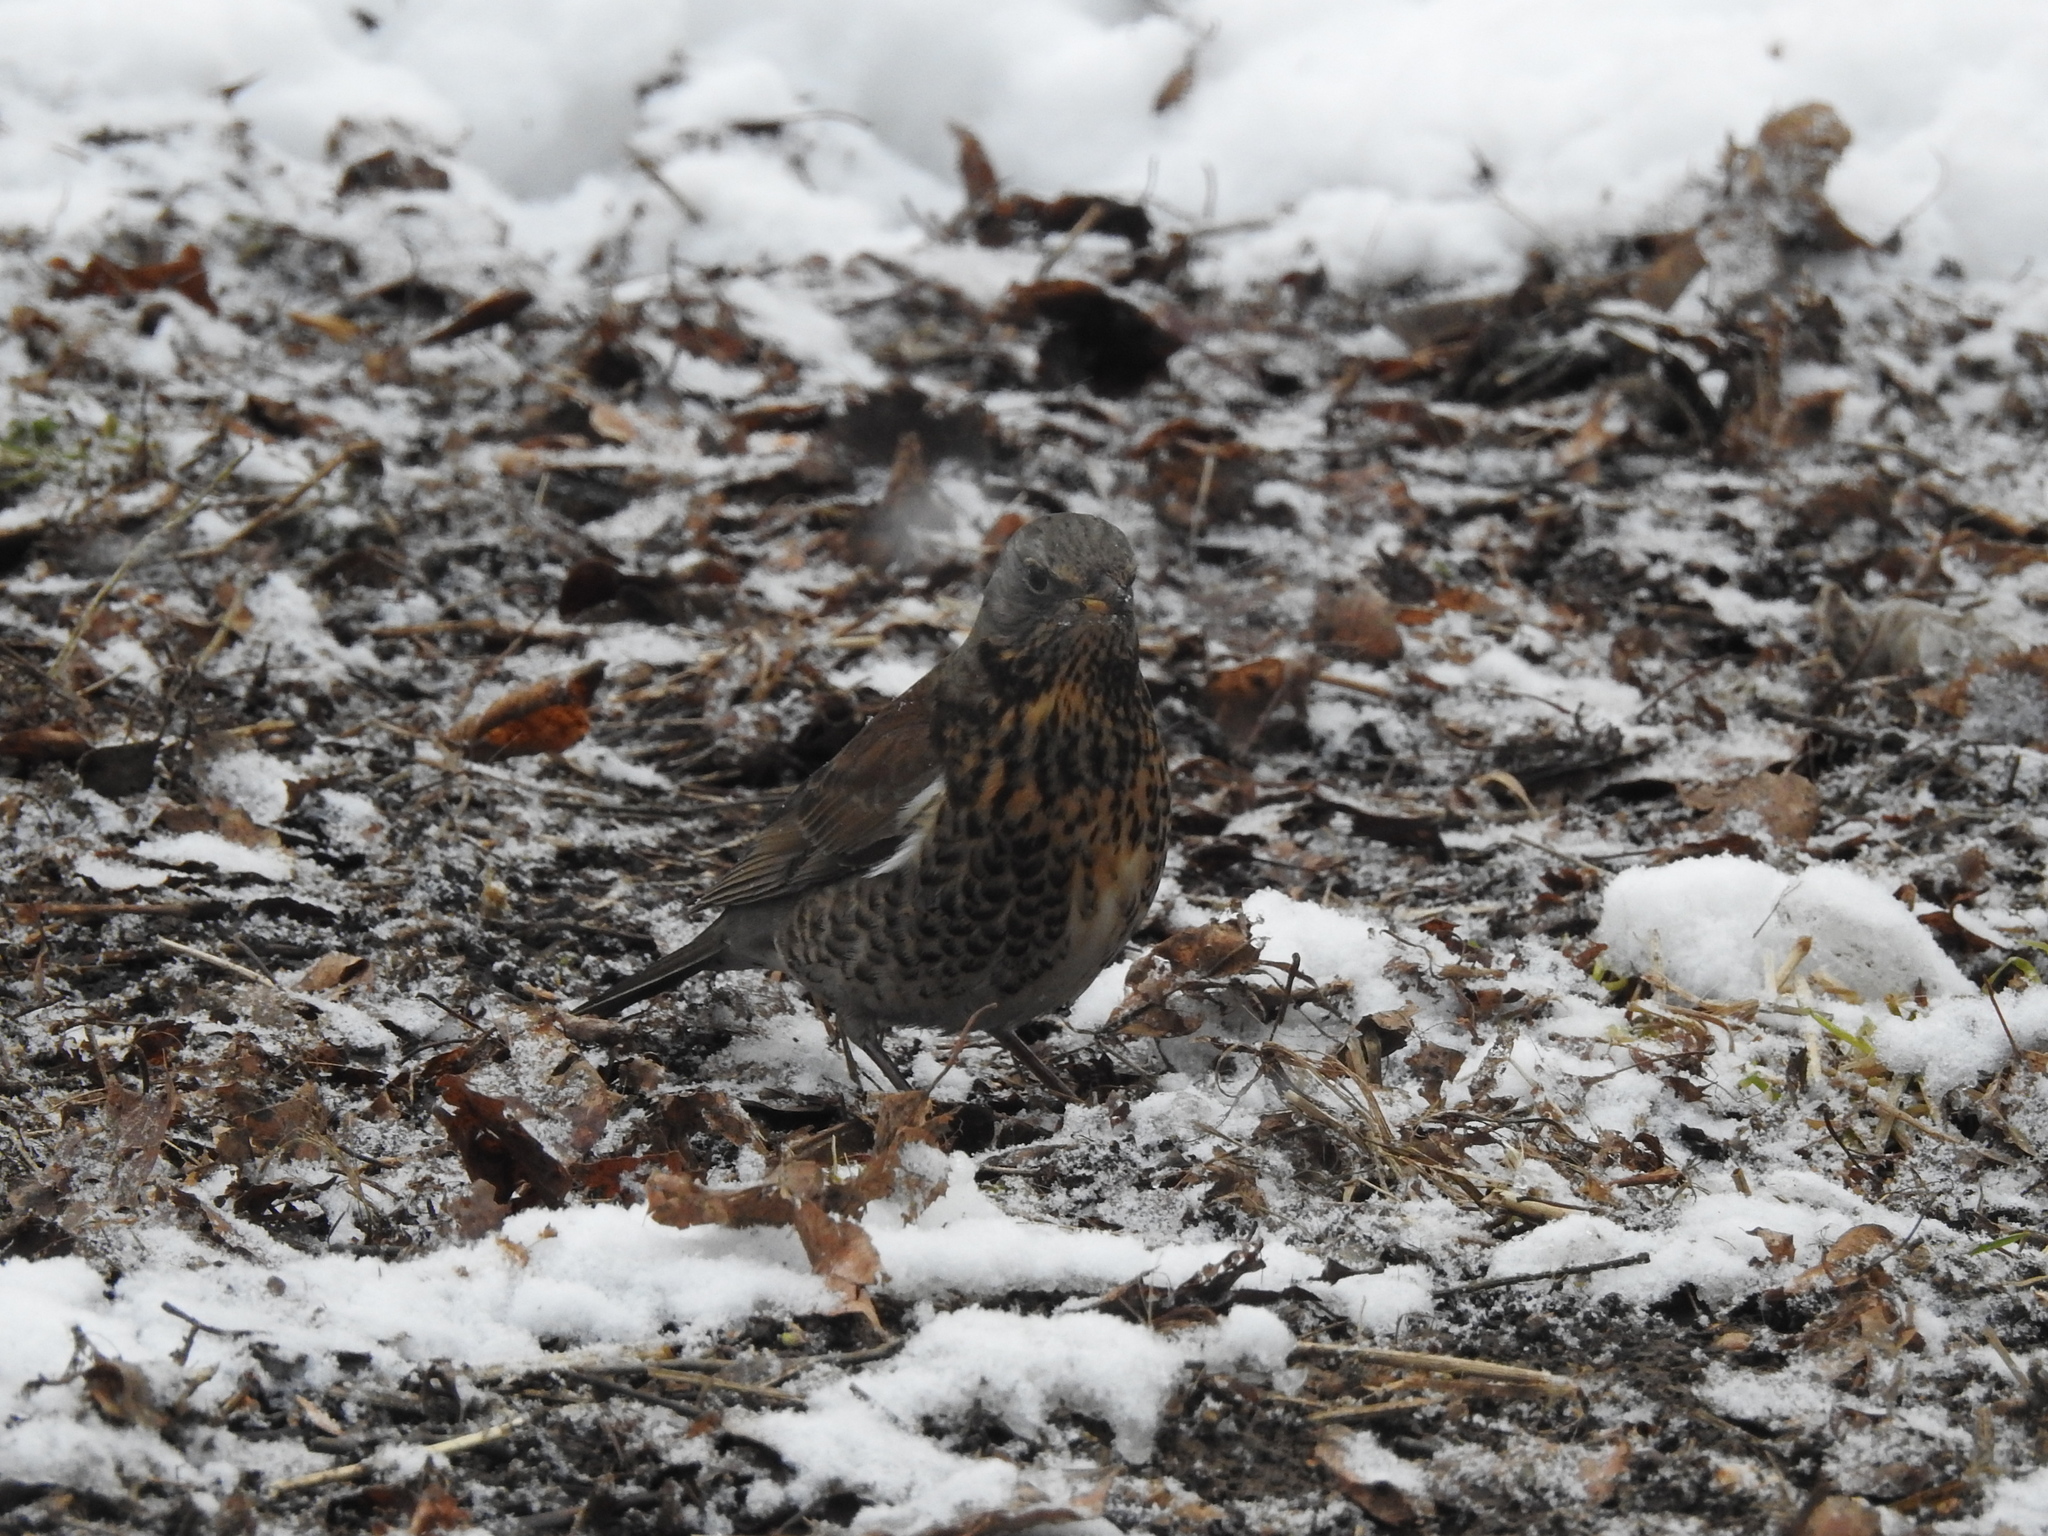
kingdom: Animalia
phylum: Chordata
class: Aves
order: Passeriformes
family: Turdidae
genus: Turdus
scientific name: Turdus pilaris
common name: Fieldfare
